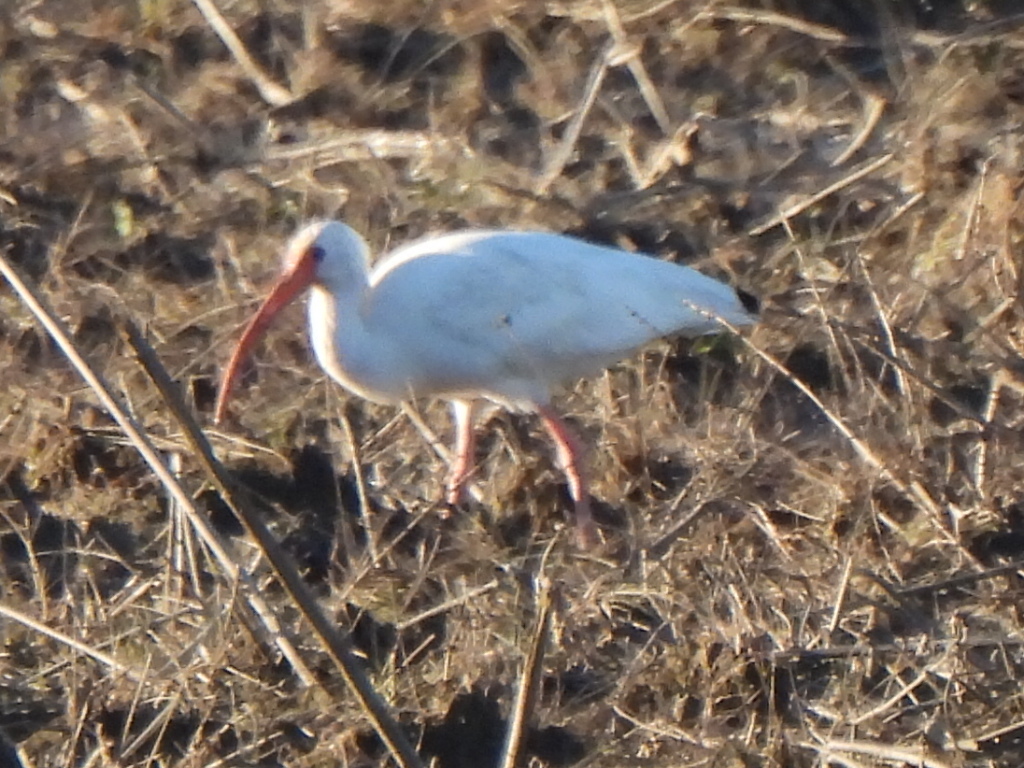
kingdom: Animalia
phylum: Chordata
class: Aves
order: Pelecaniformes
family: Threskiornithidae
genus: Eudocimus
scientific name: Eudocimus albus
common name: White ibis
